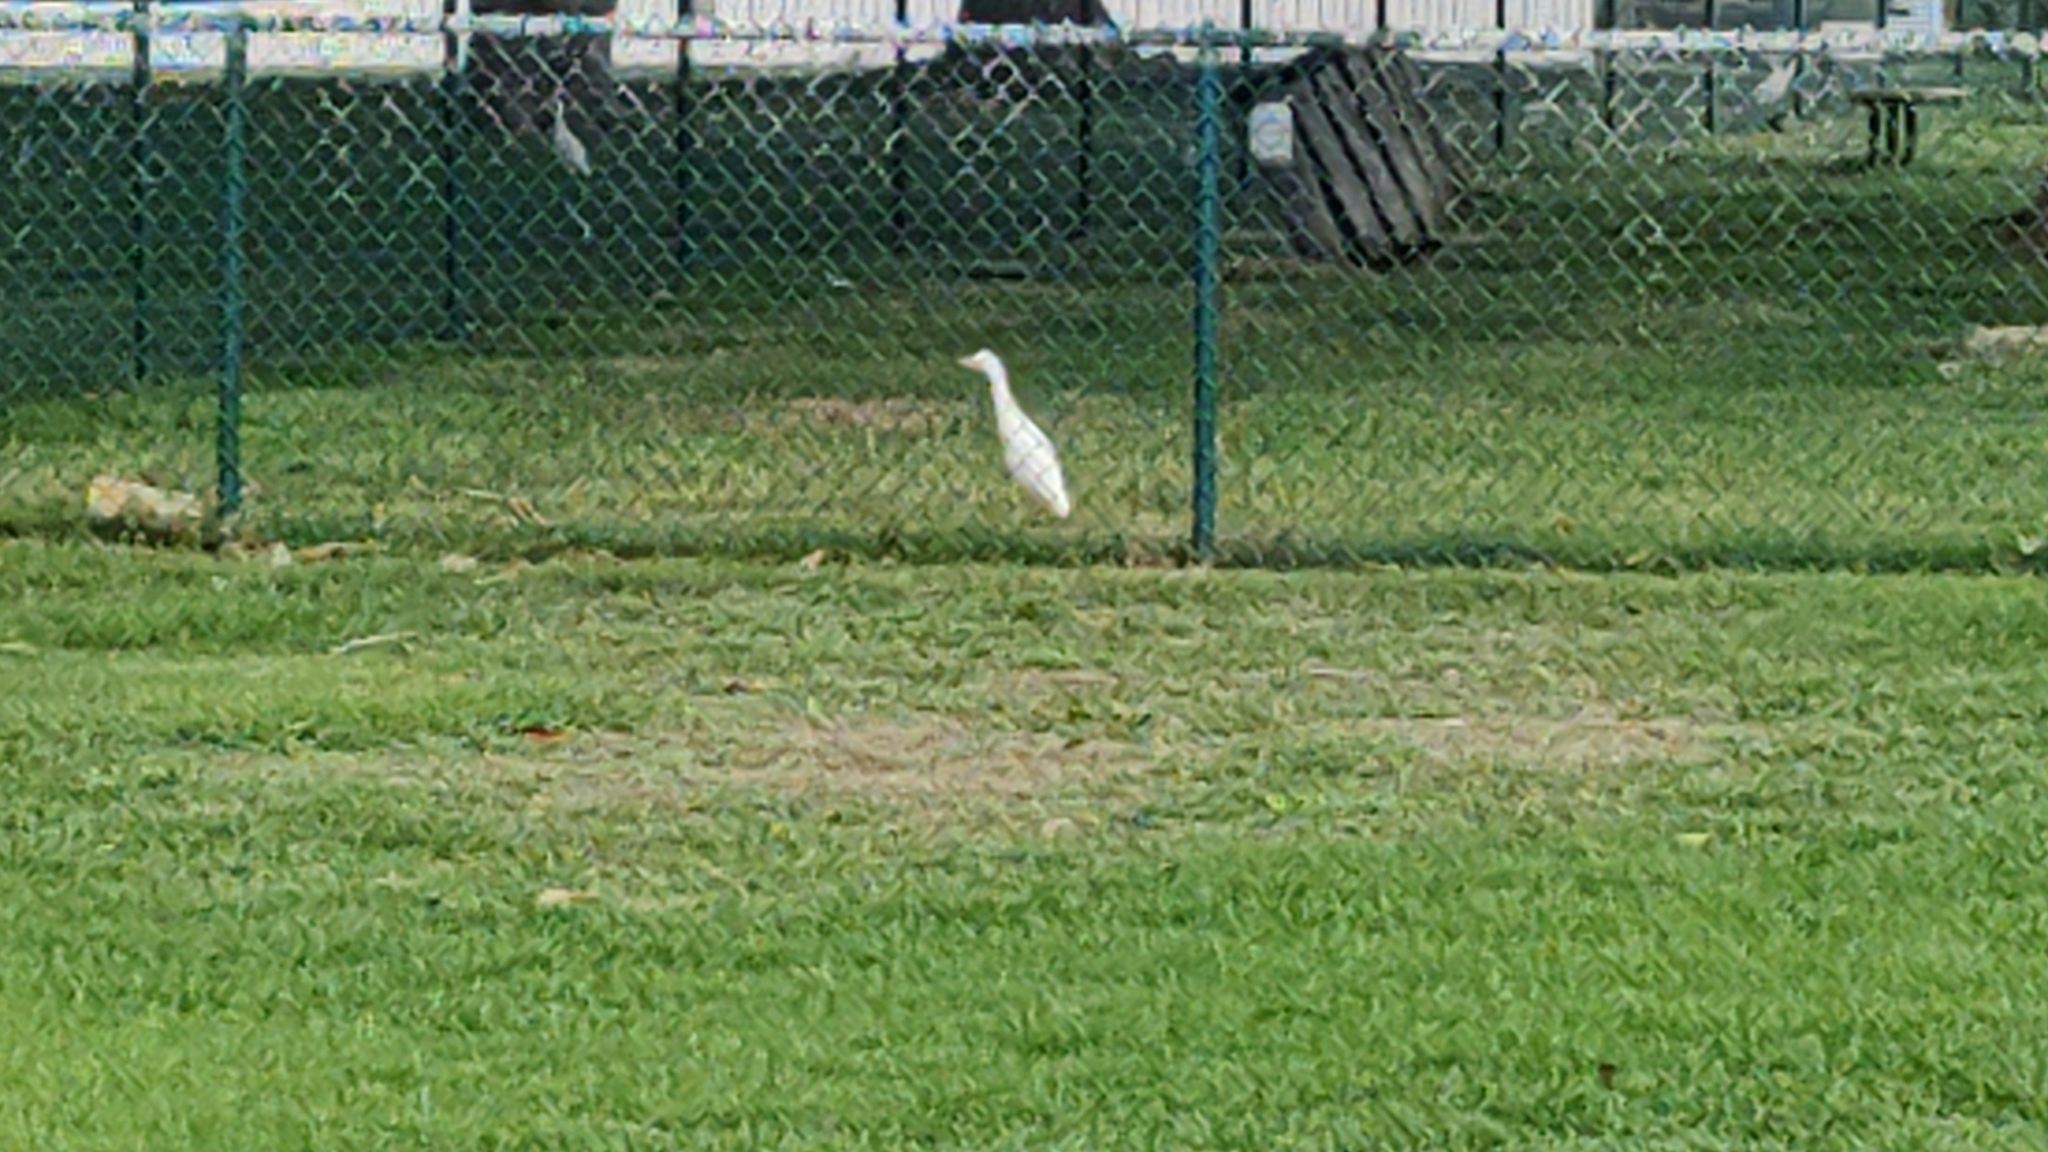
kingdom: Animalia
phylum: Chordata
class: Aves
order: Pelecaniformes
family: Ardeidae
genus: Bubulcus
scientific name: Bubulcus ibis
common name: Cattle egret
